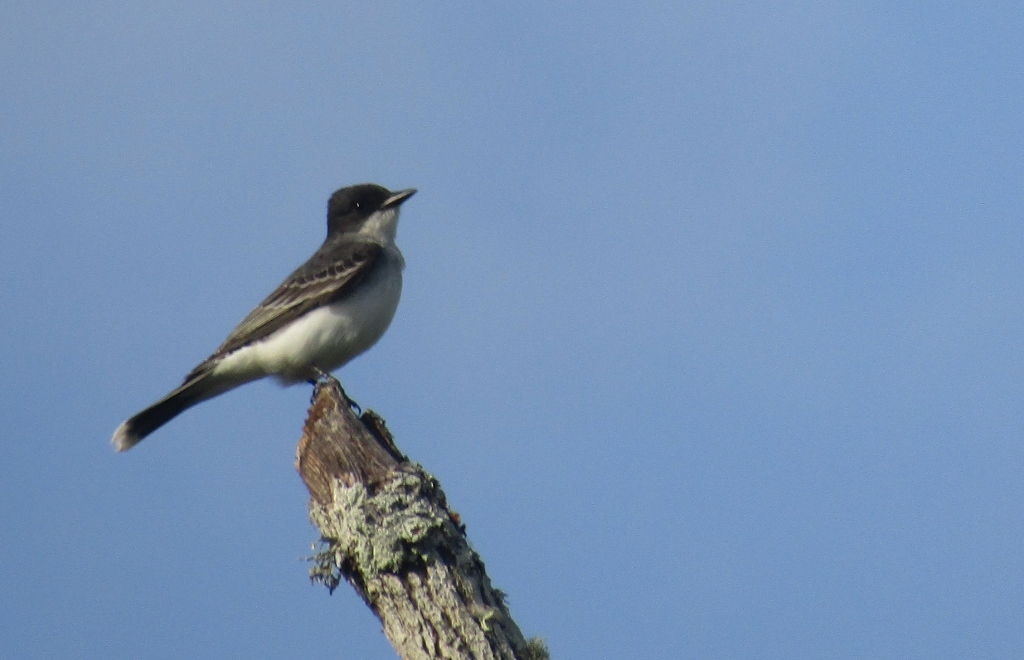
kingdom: Animalia
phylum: Chordata
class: Aves
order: Passeriformes
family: Tyrannidae
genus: Tyrannus
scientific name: Tyrannus tyrannus
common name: Eastern kingbird
